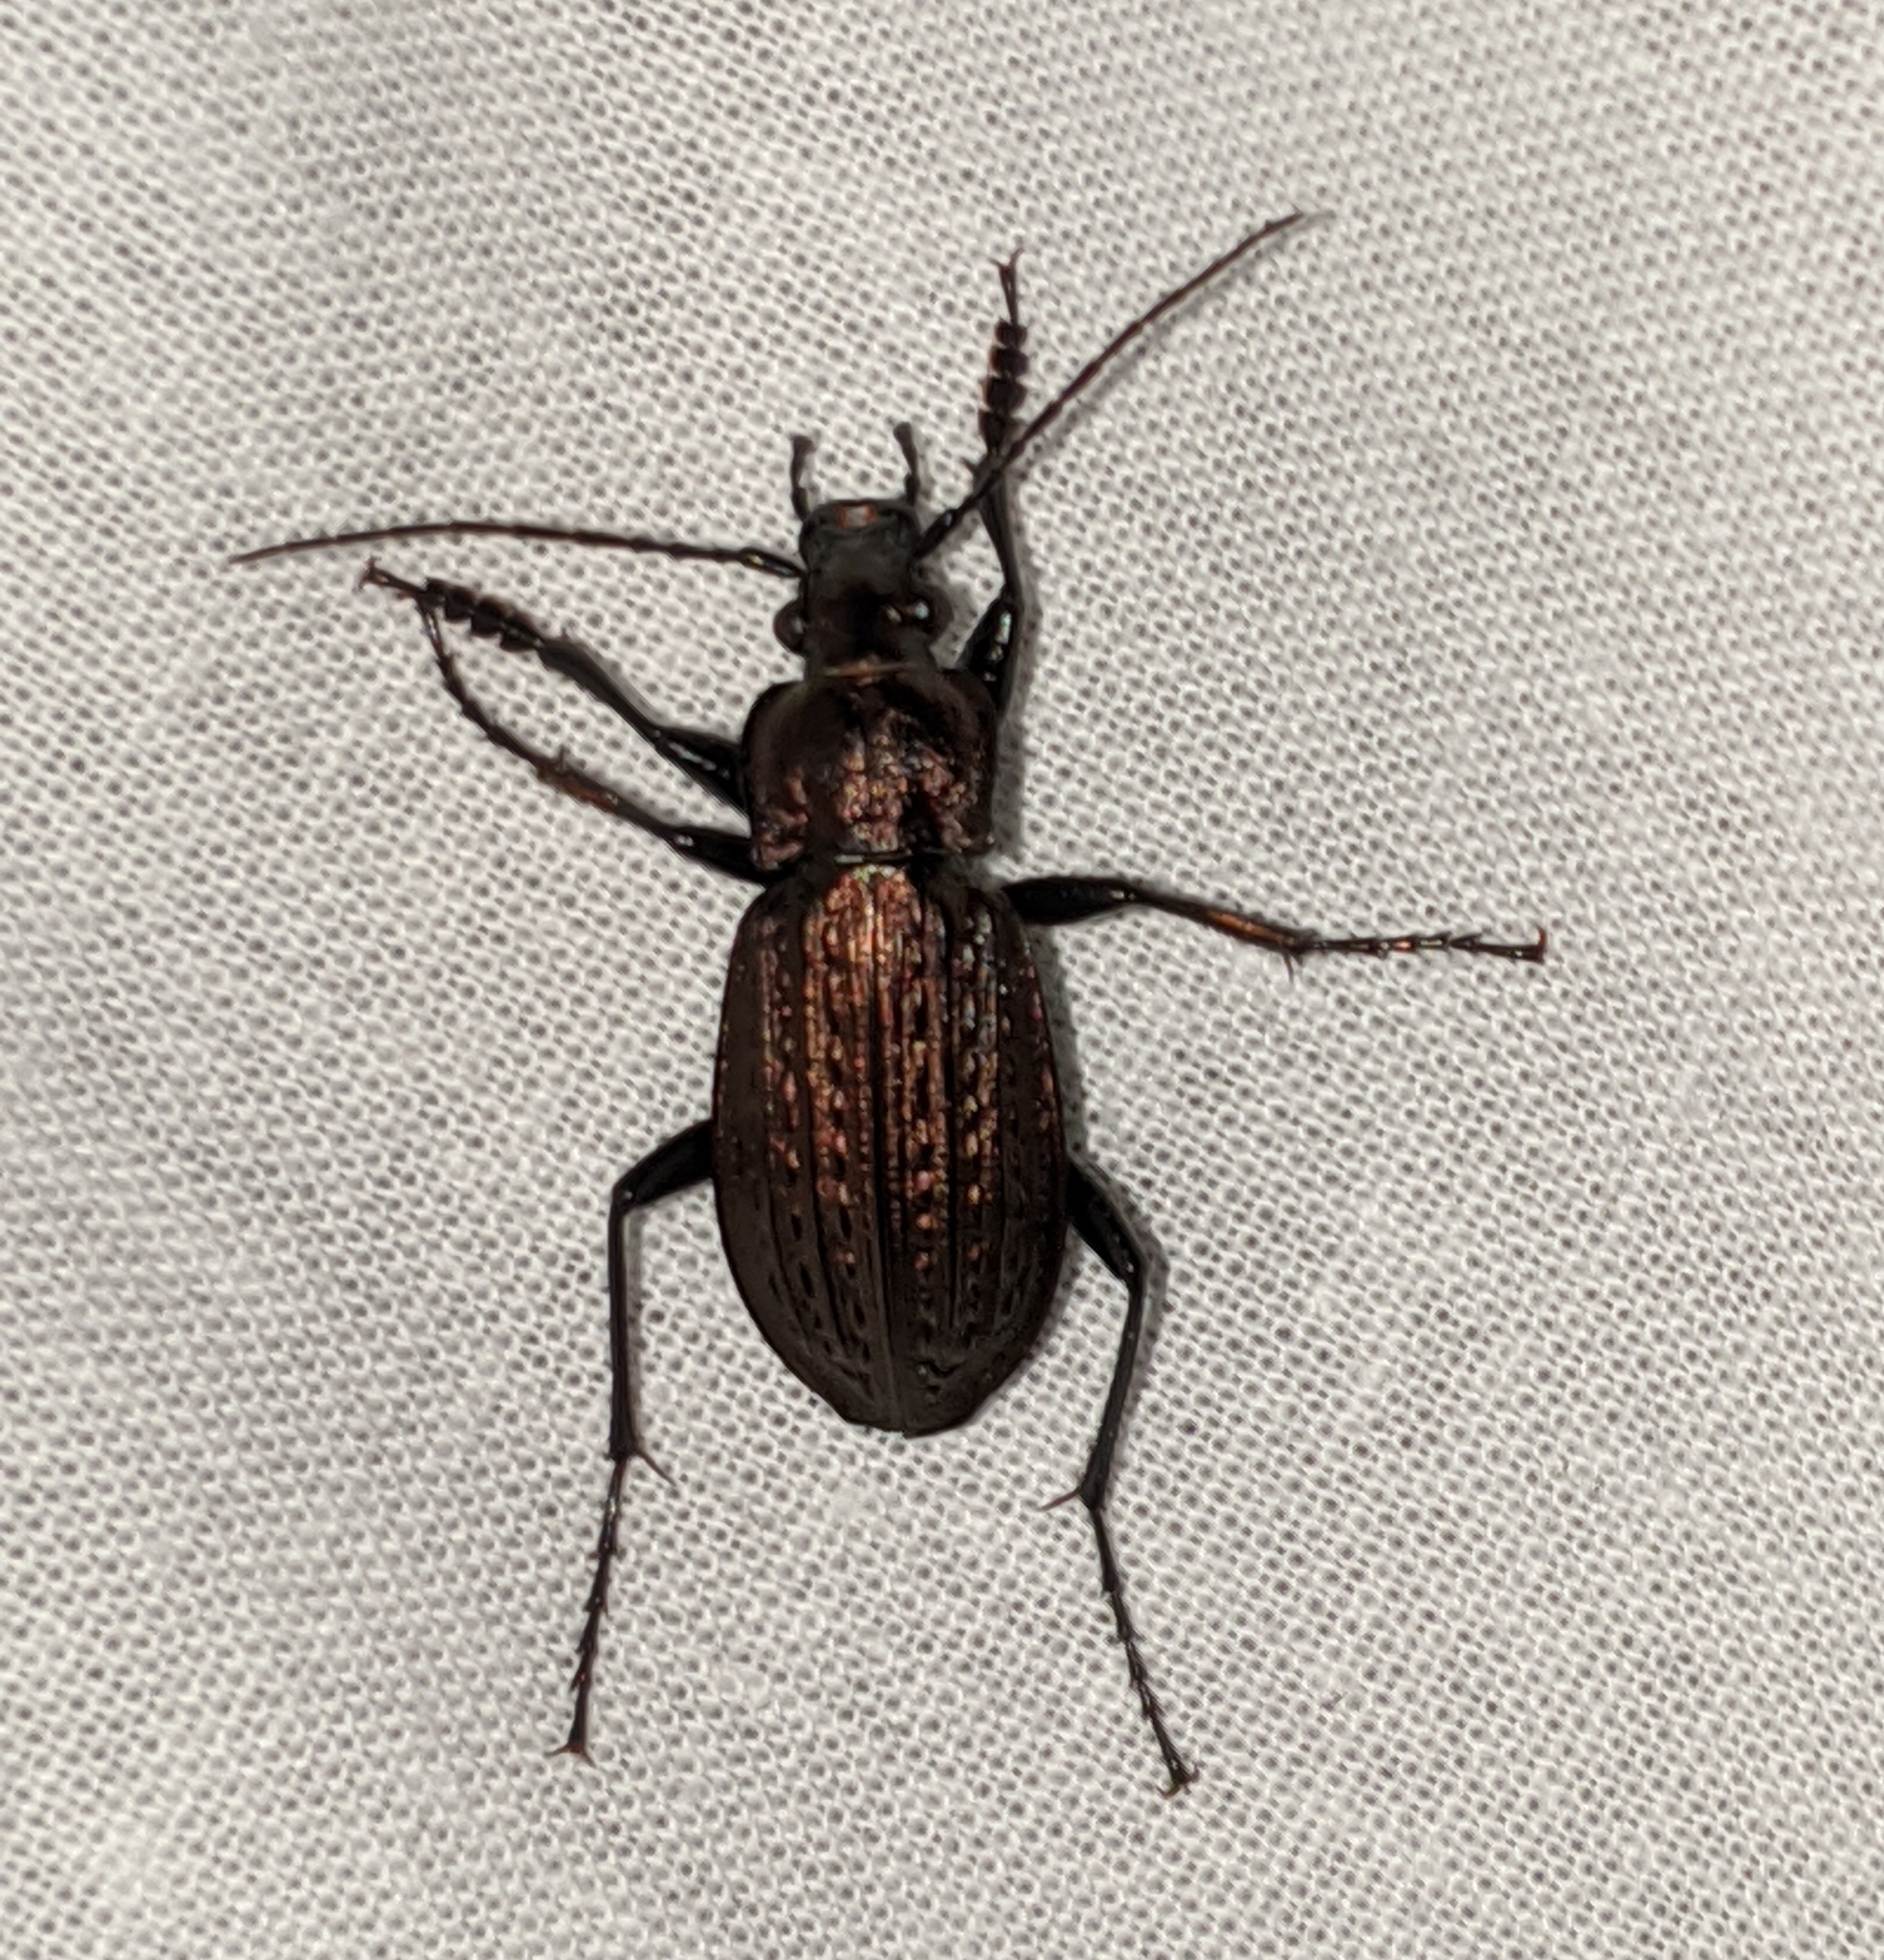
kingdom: Animalia
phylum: Arthropoda
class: Insecta
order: Coleoptera
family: Carabidae
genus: Carabus
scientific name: Carabus granulatus
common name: Granulate ground beetle
